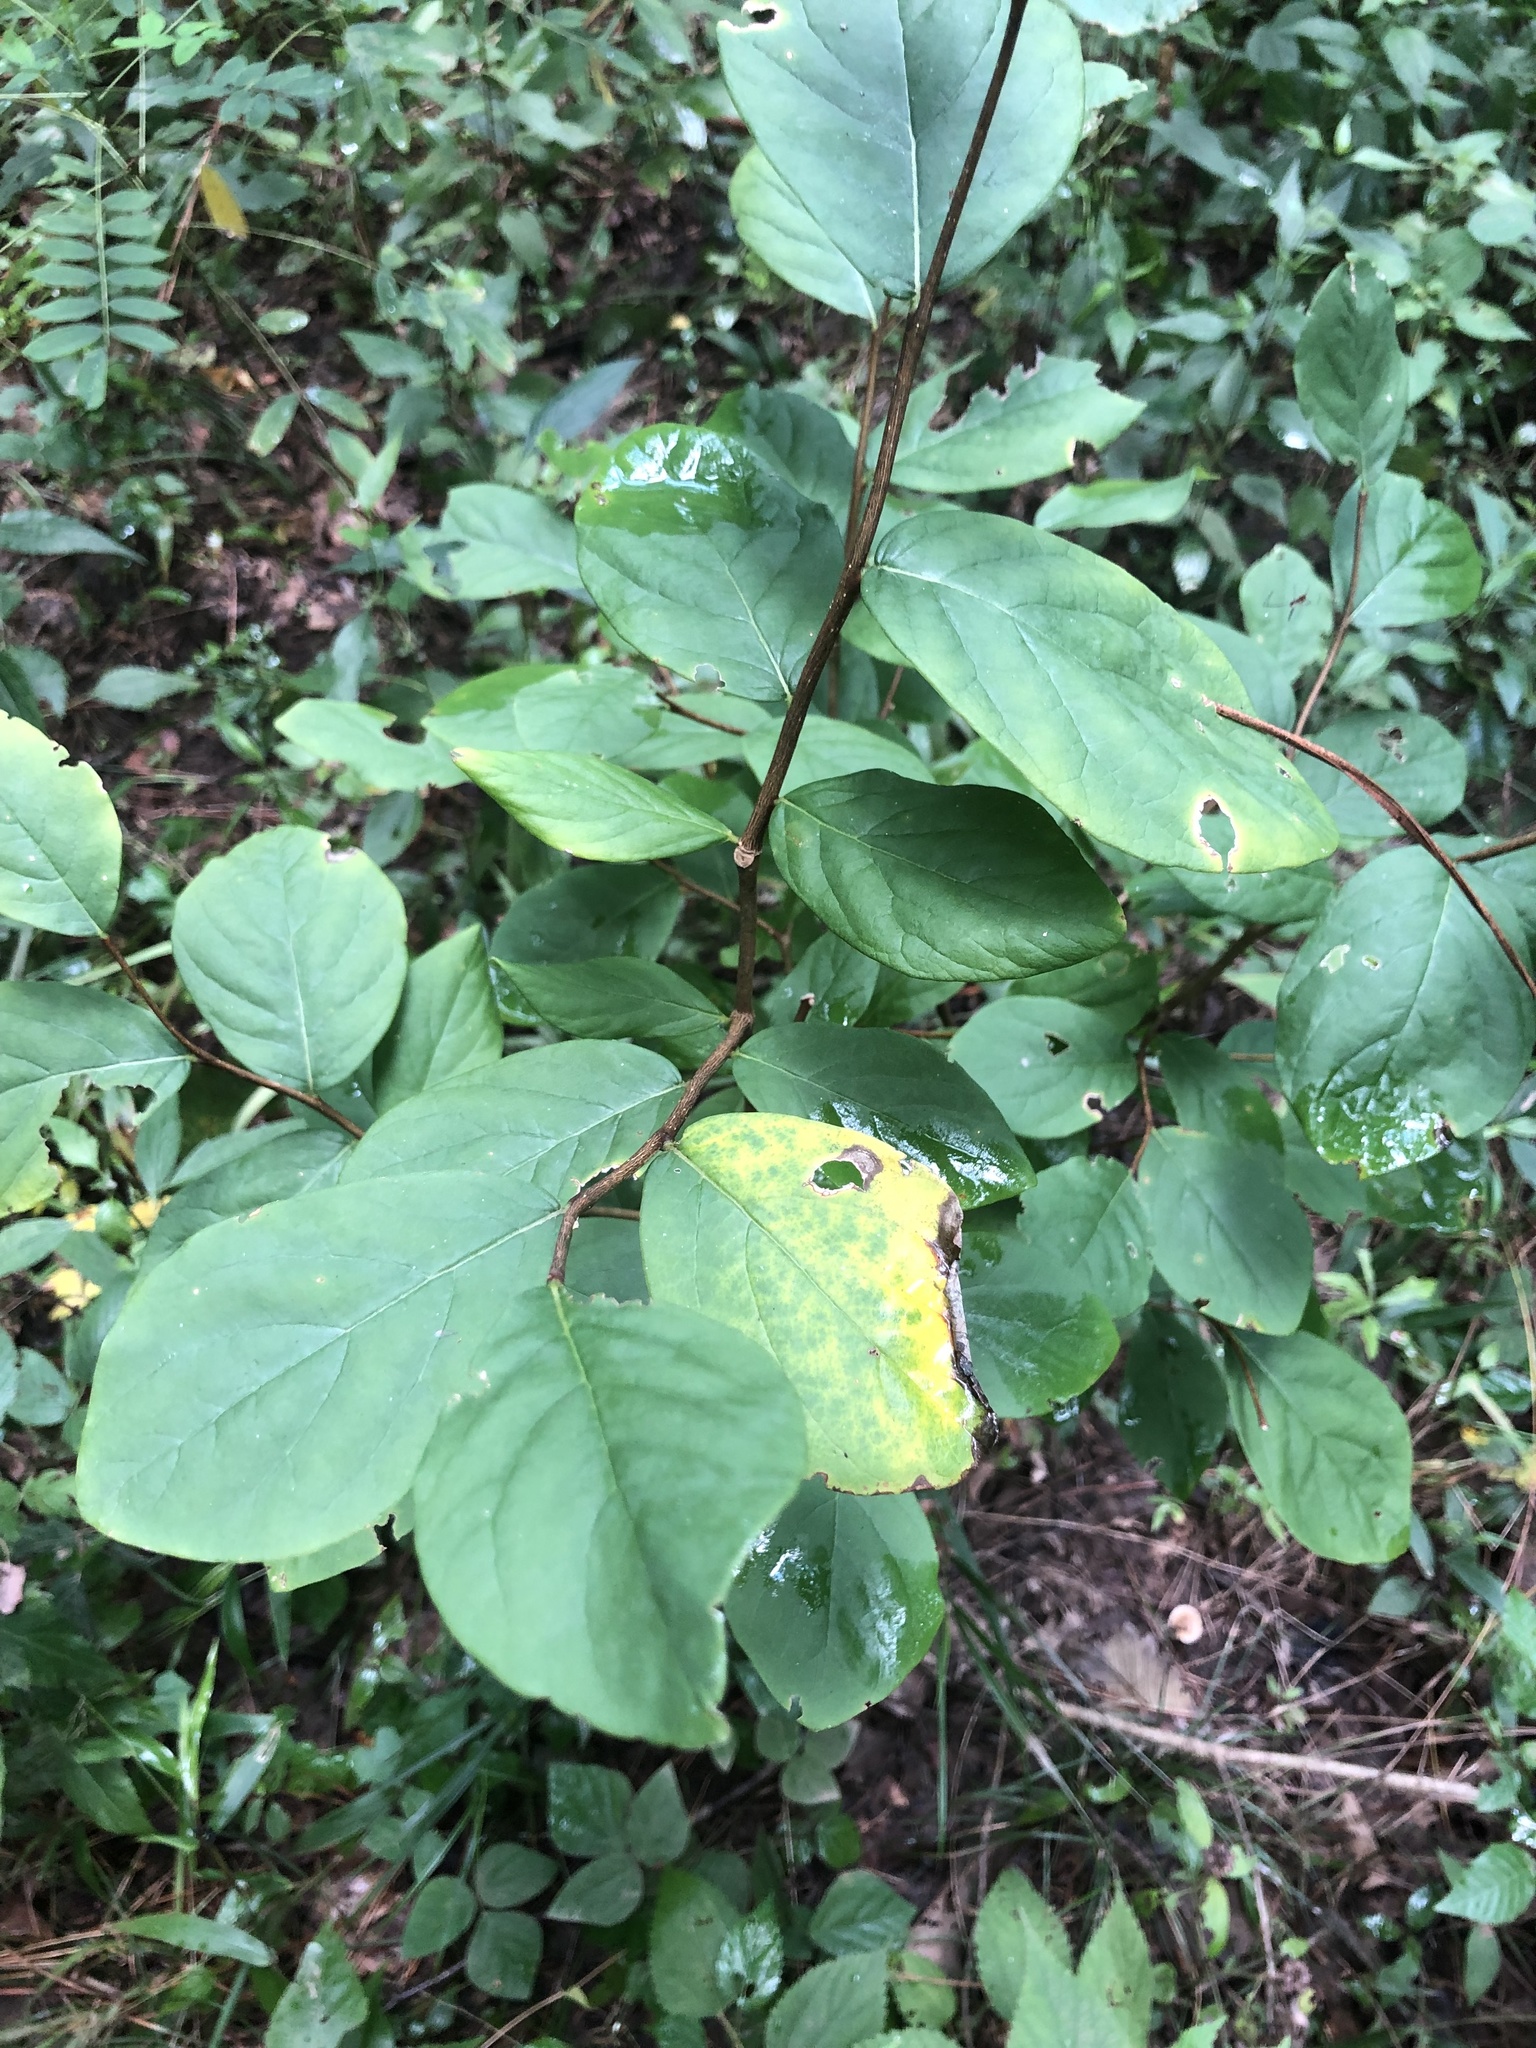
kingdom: Plantae
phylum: Tracheophyta
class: Magnoliopsida
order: Malvales
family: Thymelaeaceae
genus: Dirca
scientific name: Dirca palustris
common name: Leatherwood
